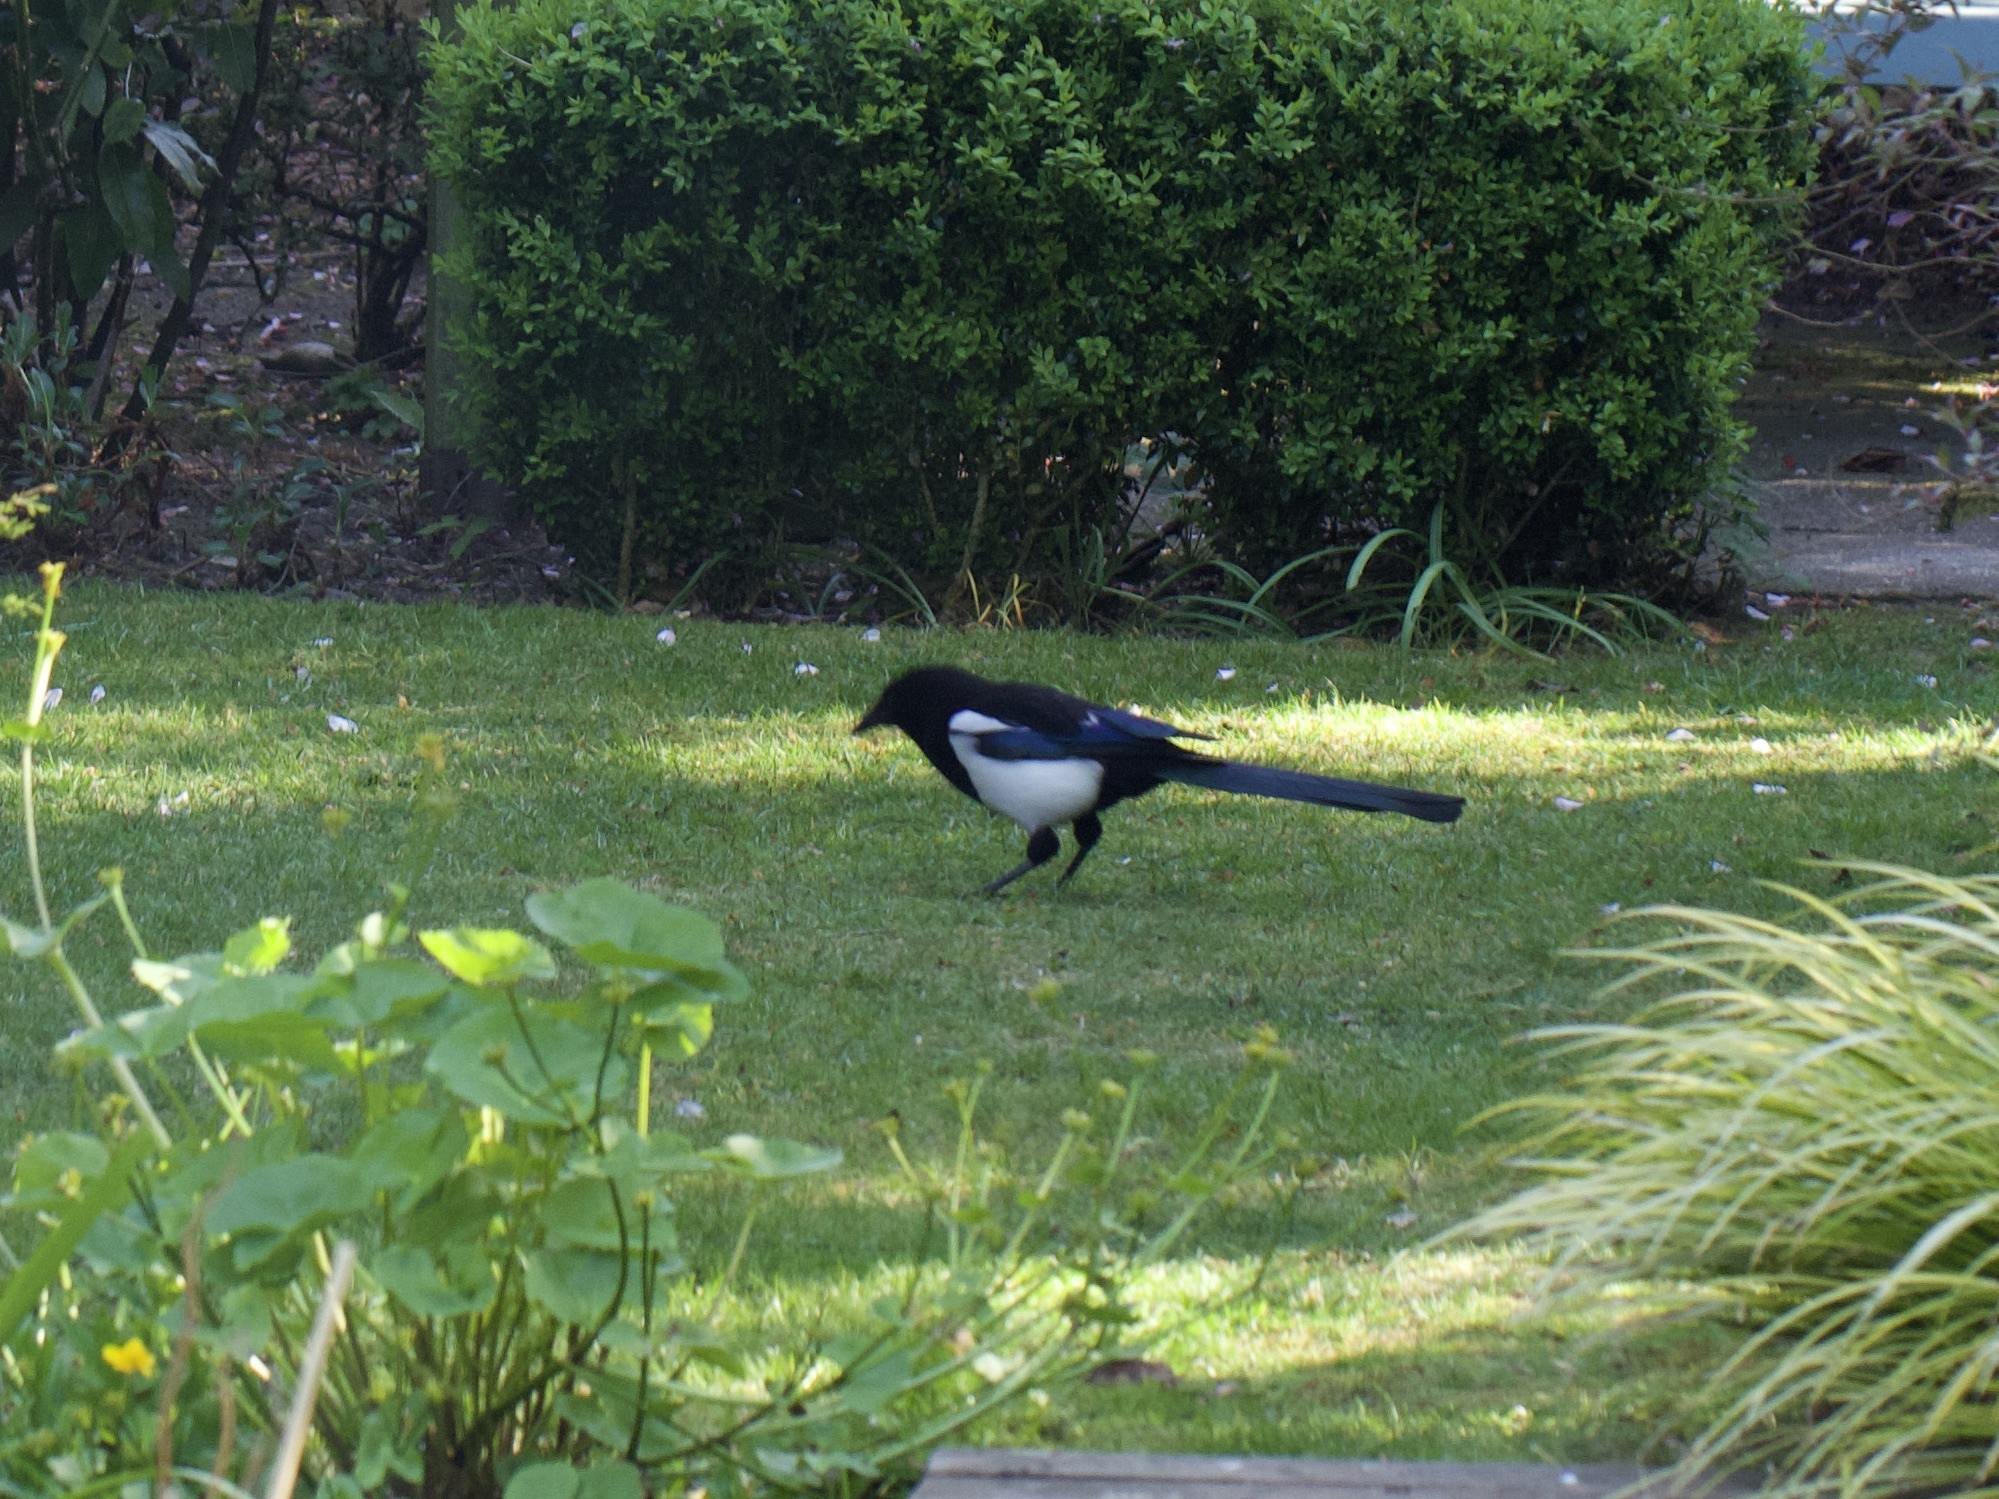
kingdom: Animalia
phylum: Chordata
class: Aves
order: Passeriformes
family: Corvidae
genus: Pica
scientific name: Pica pica
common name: Eurasian magpie
